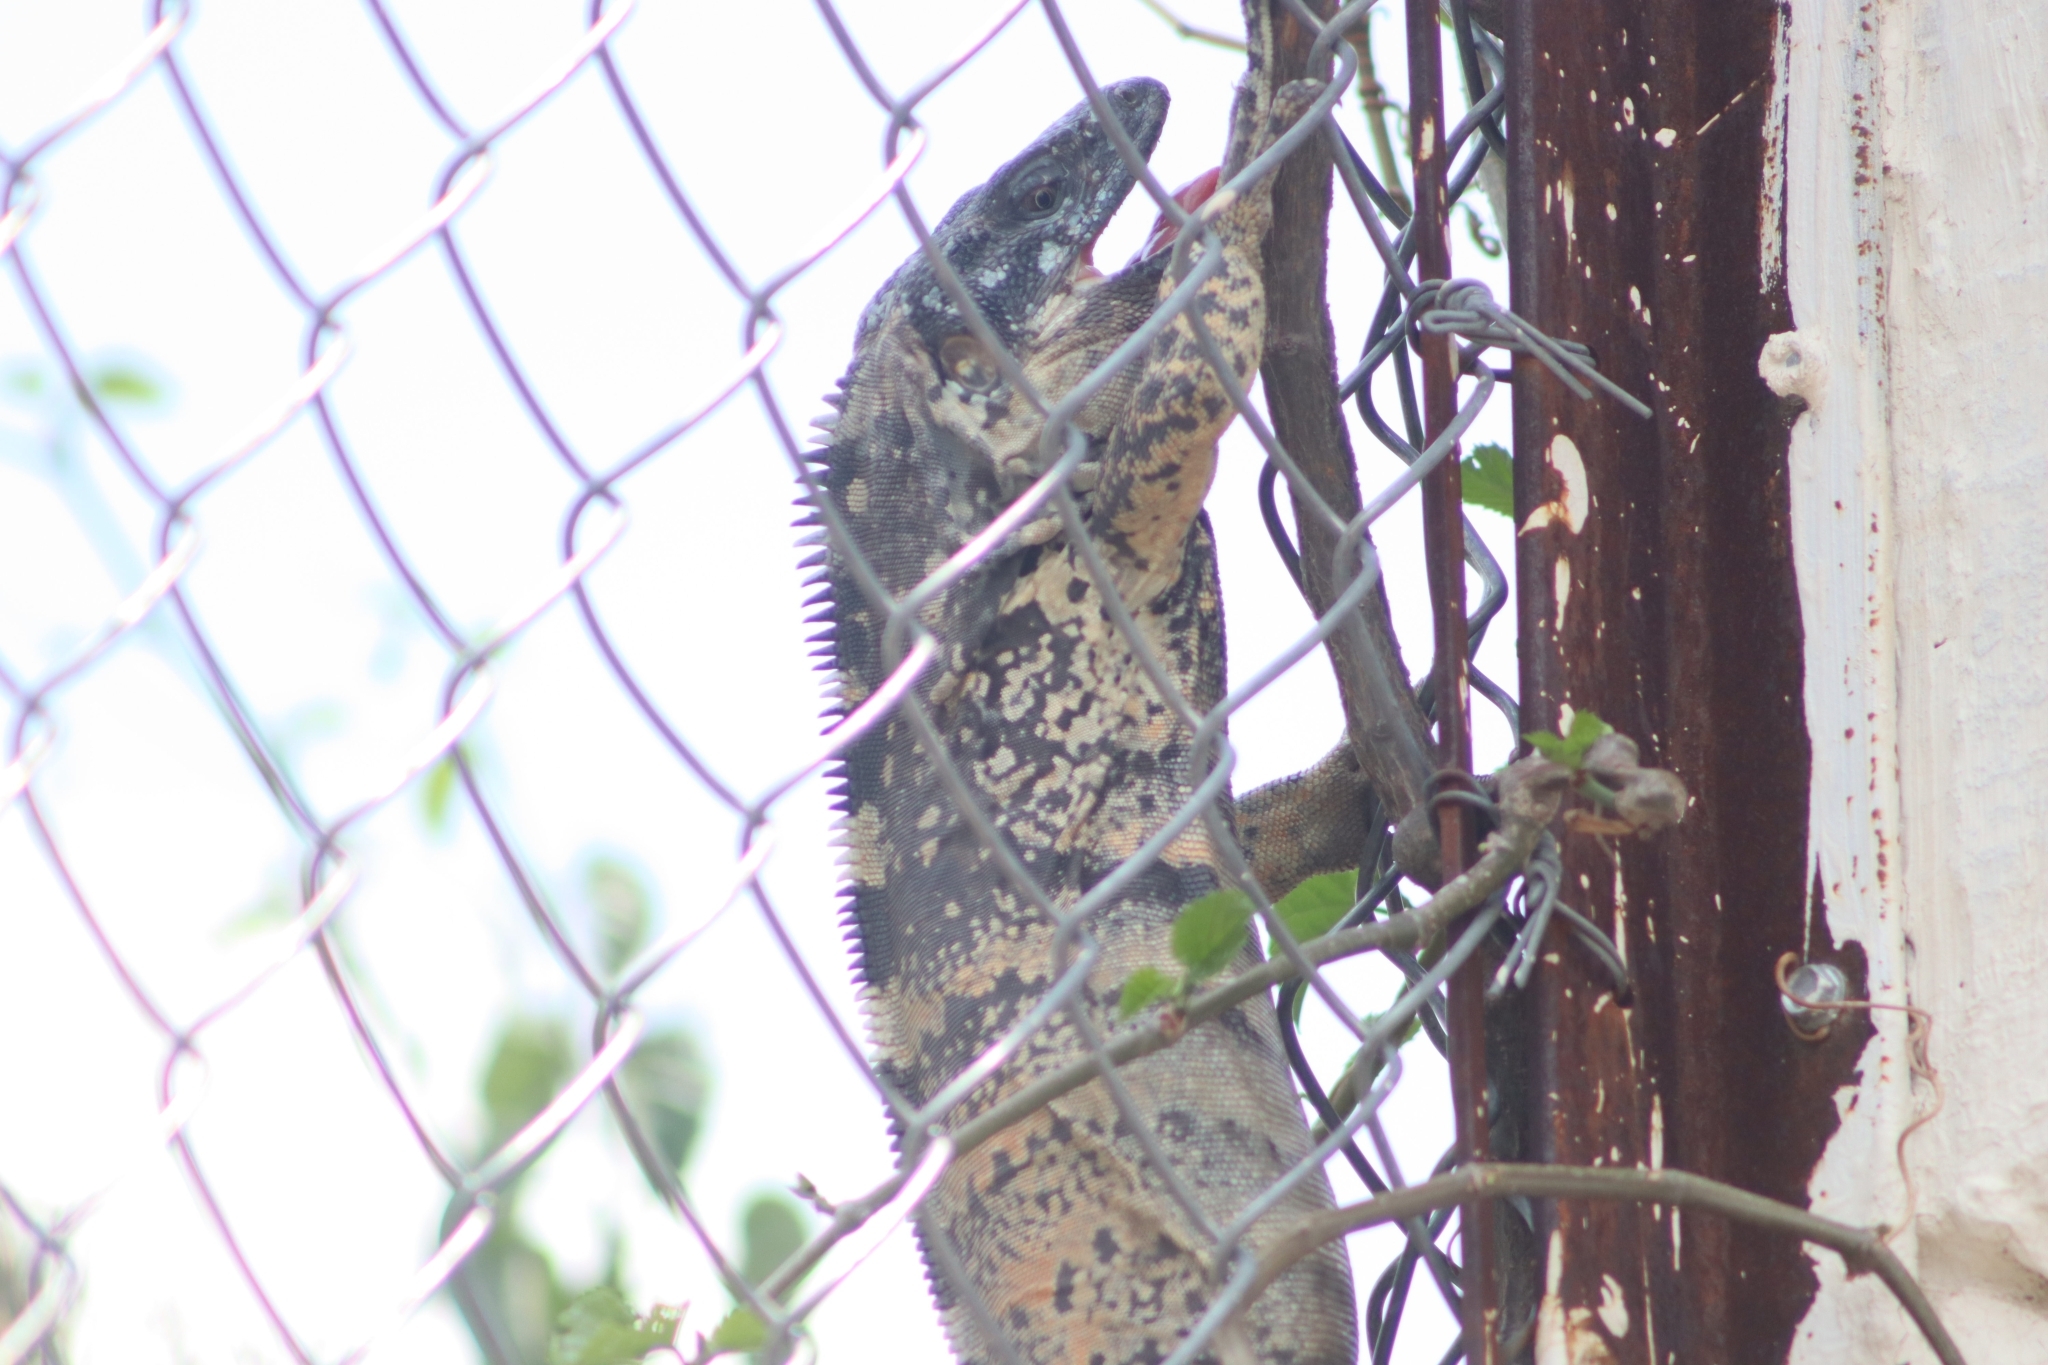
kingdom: Animalia
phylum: Chordata
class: Squamata
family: Iguanidae
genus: Ctenosaura
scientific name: Ctenosaura pectinata
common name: Guerreran spiny-tailed iguana
